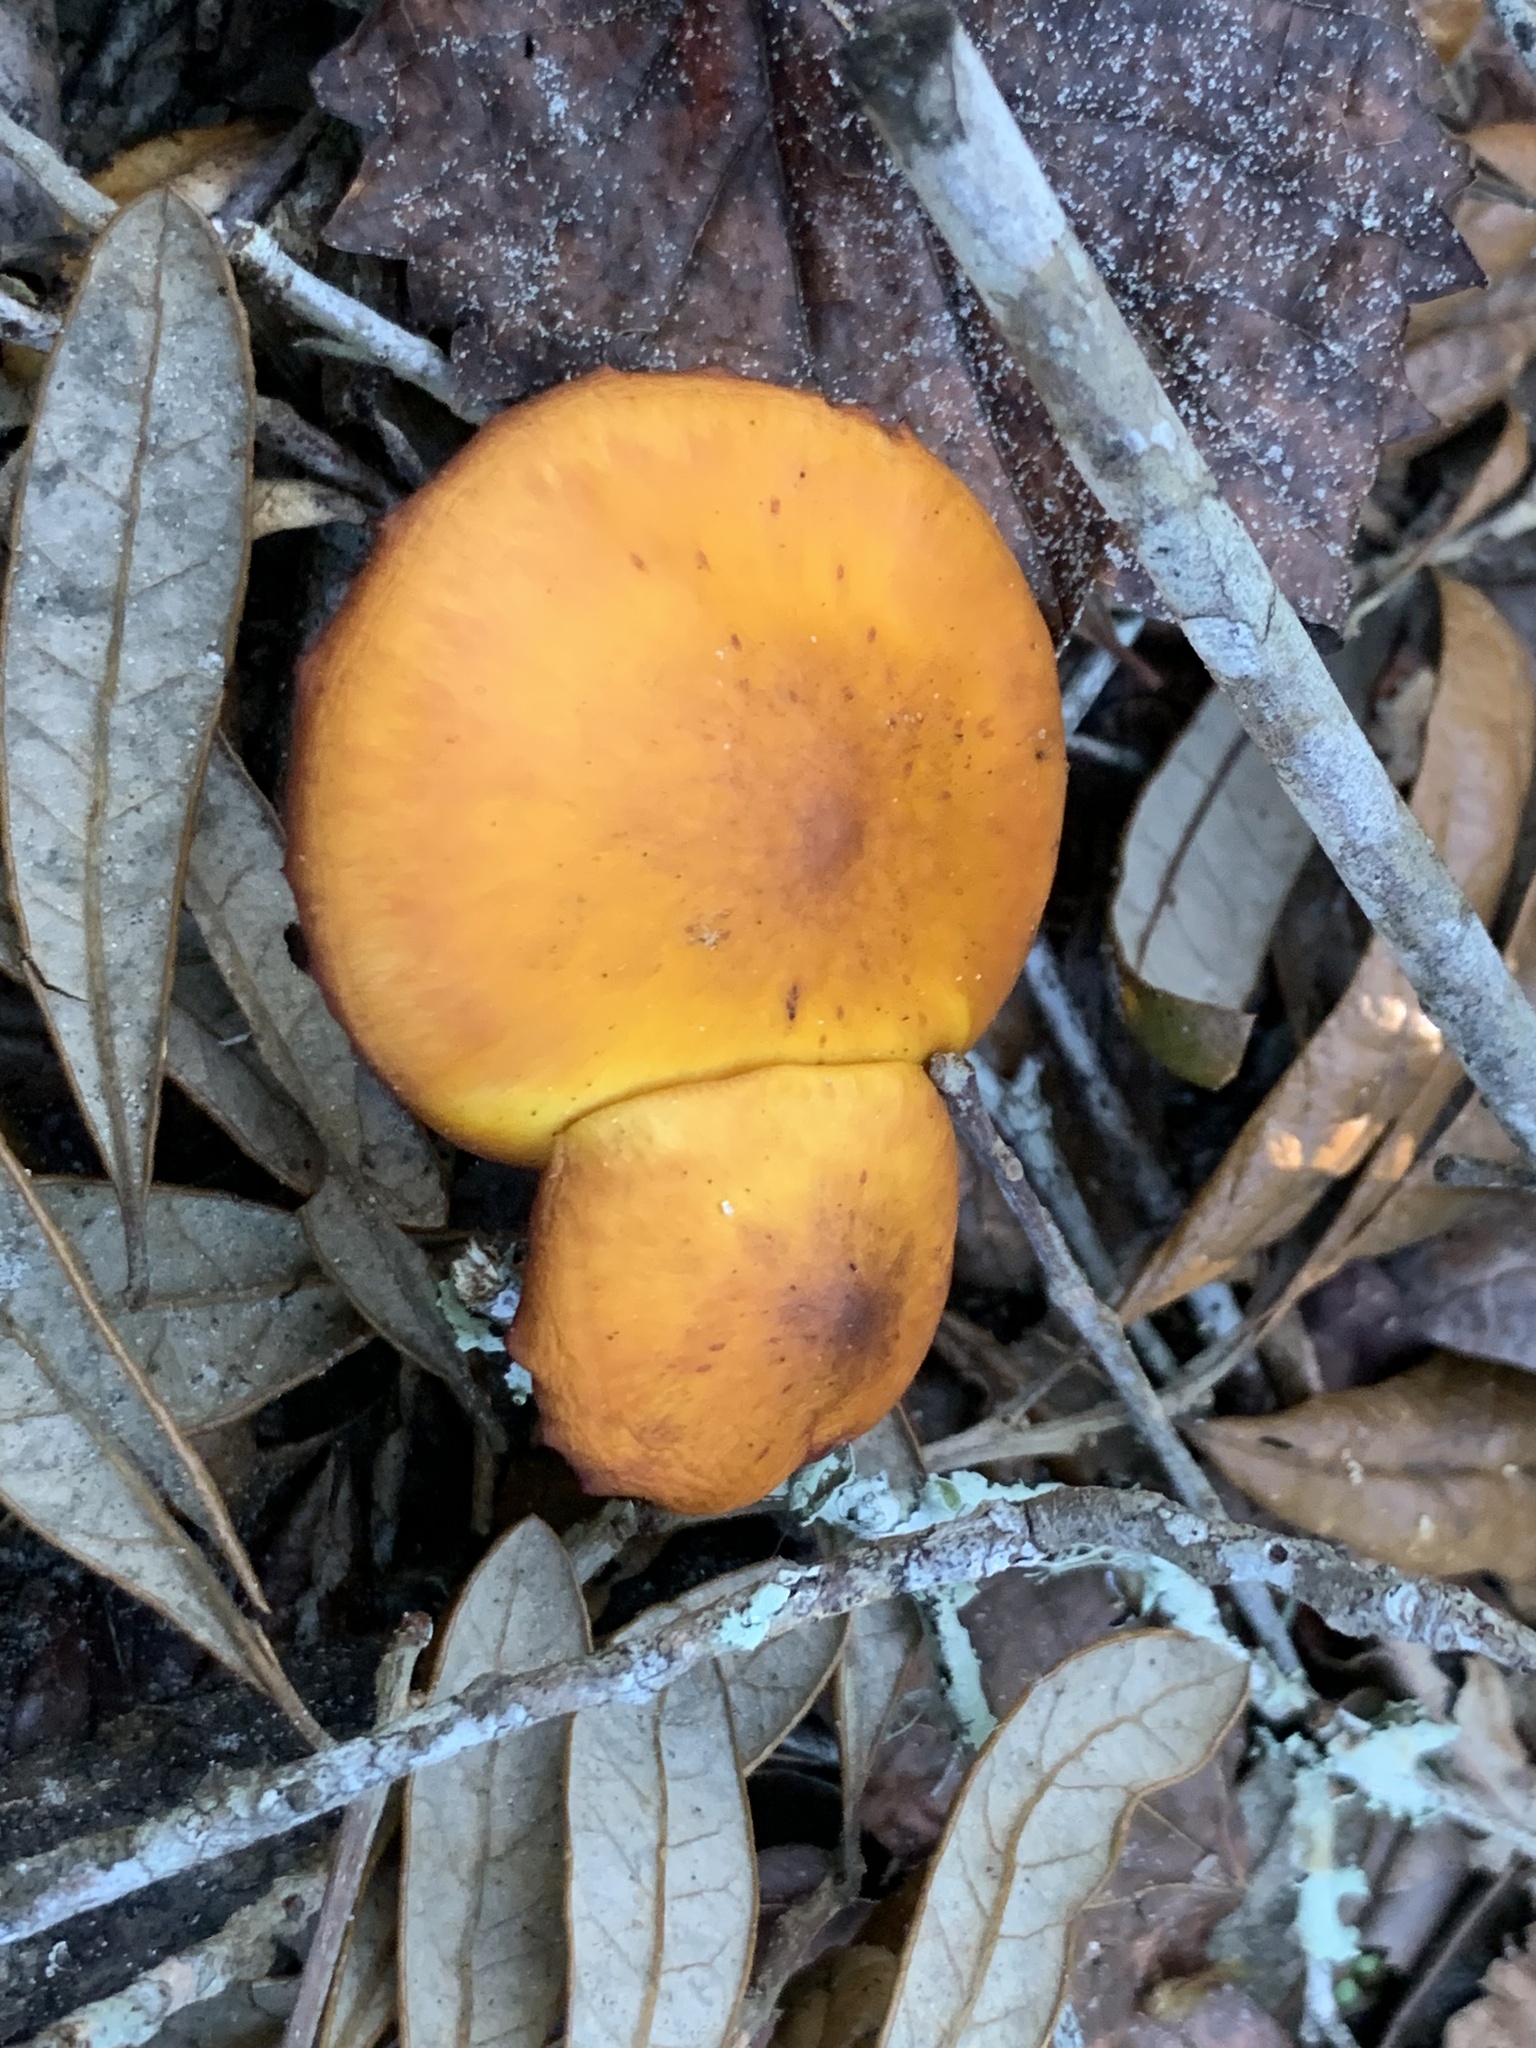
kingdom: Fungi
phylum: Basidiomycota
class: Agaricomycetes
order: Agaricales
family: Omphalotaceae
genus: Omphalotus
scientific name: Omphalotus subilludens
